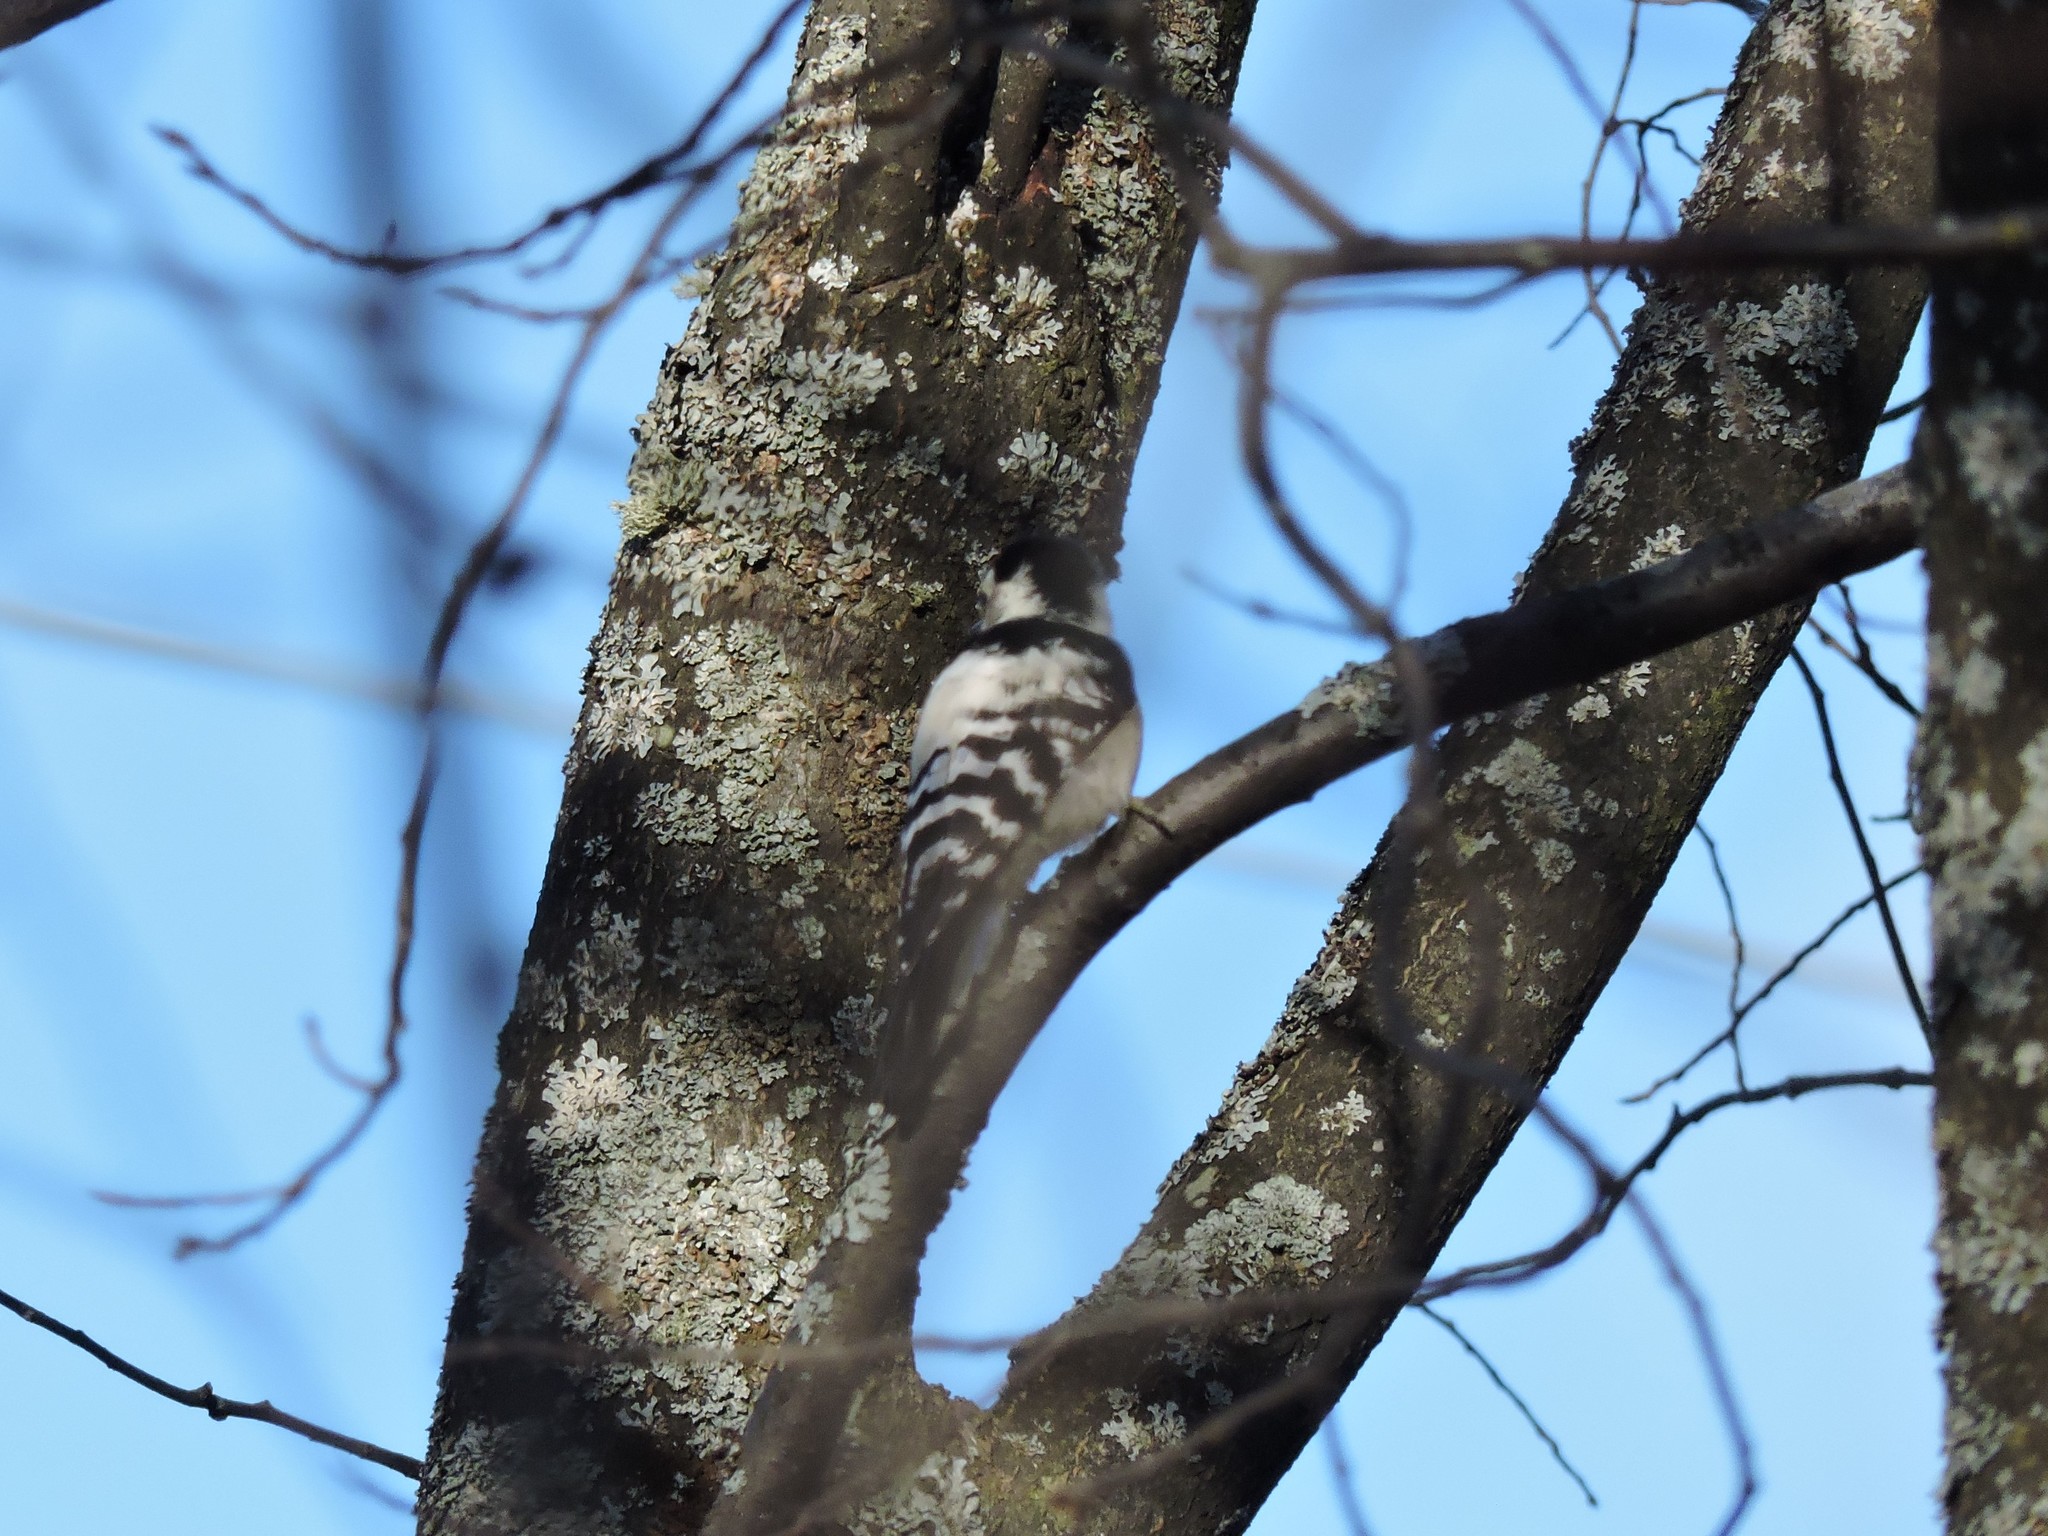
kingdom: Animalia
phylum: Chordata
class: Aves
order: Piciformes
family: Picidae
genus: Dryobates
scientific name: Dryobates minor
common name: Lesser spotted woodpecker
